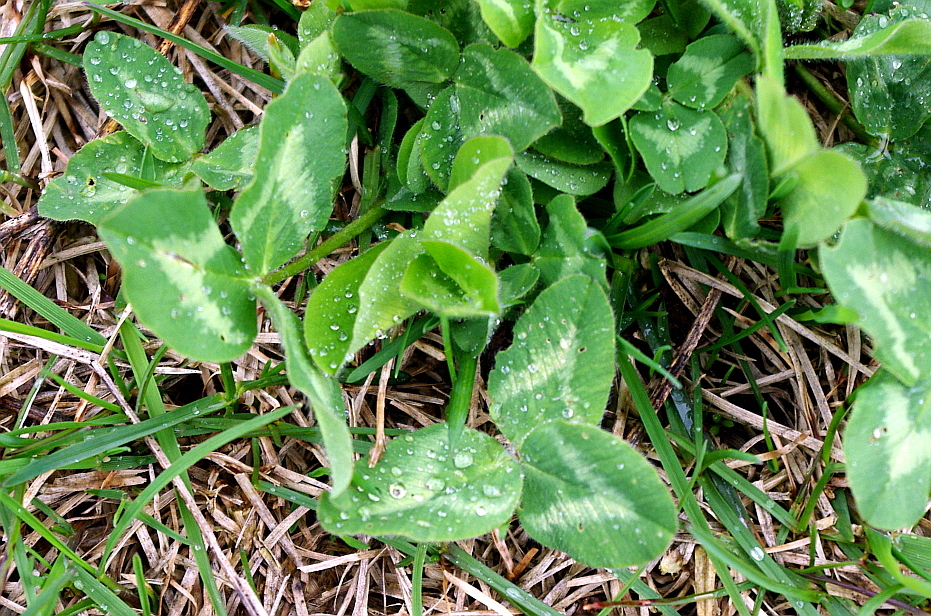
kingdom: Plantae
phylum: Tracheophyta
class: Magnoliopsida
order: Fabales
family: Fabaceae
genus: Trifolium
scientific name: Trifolium pratense
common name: Red clover
